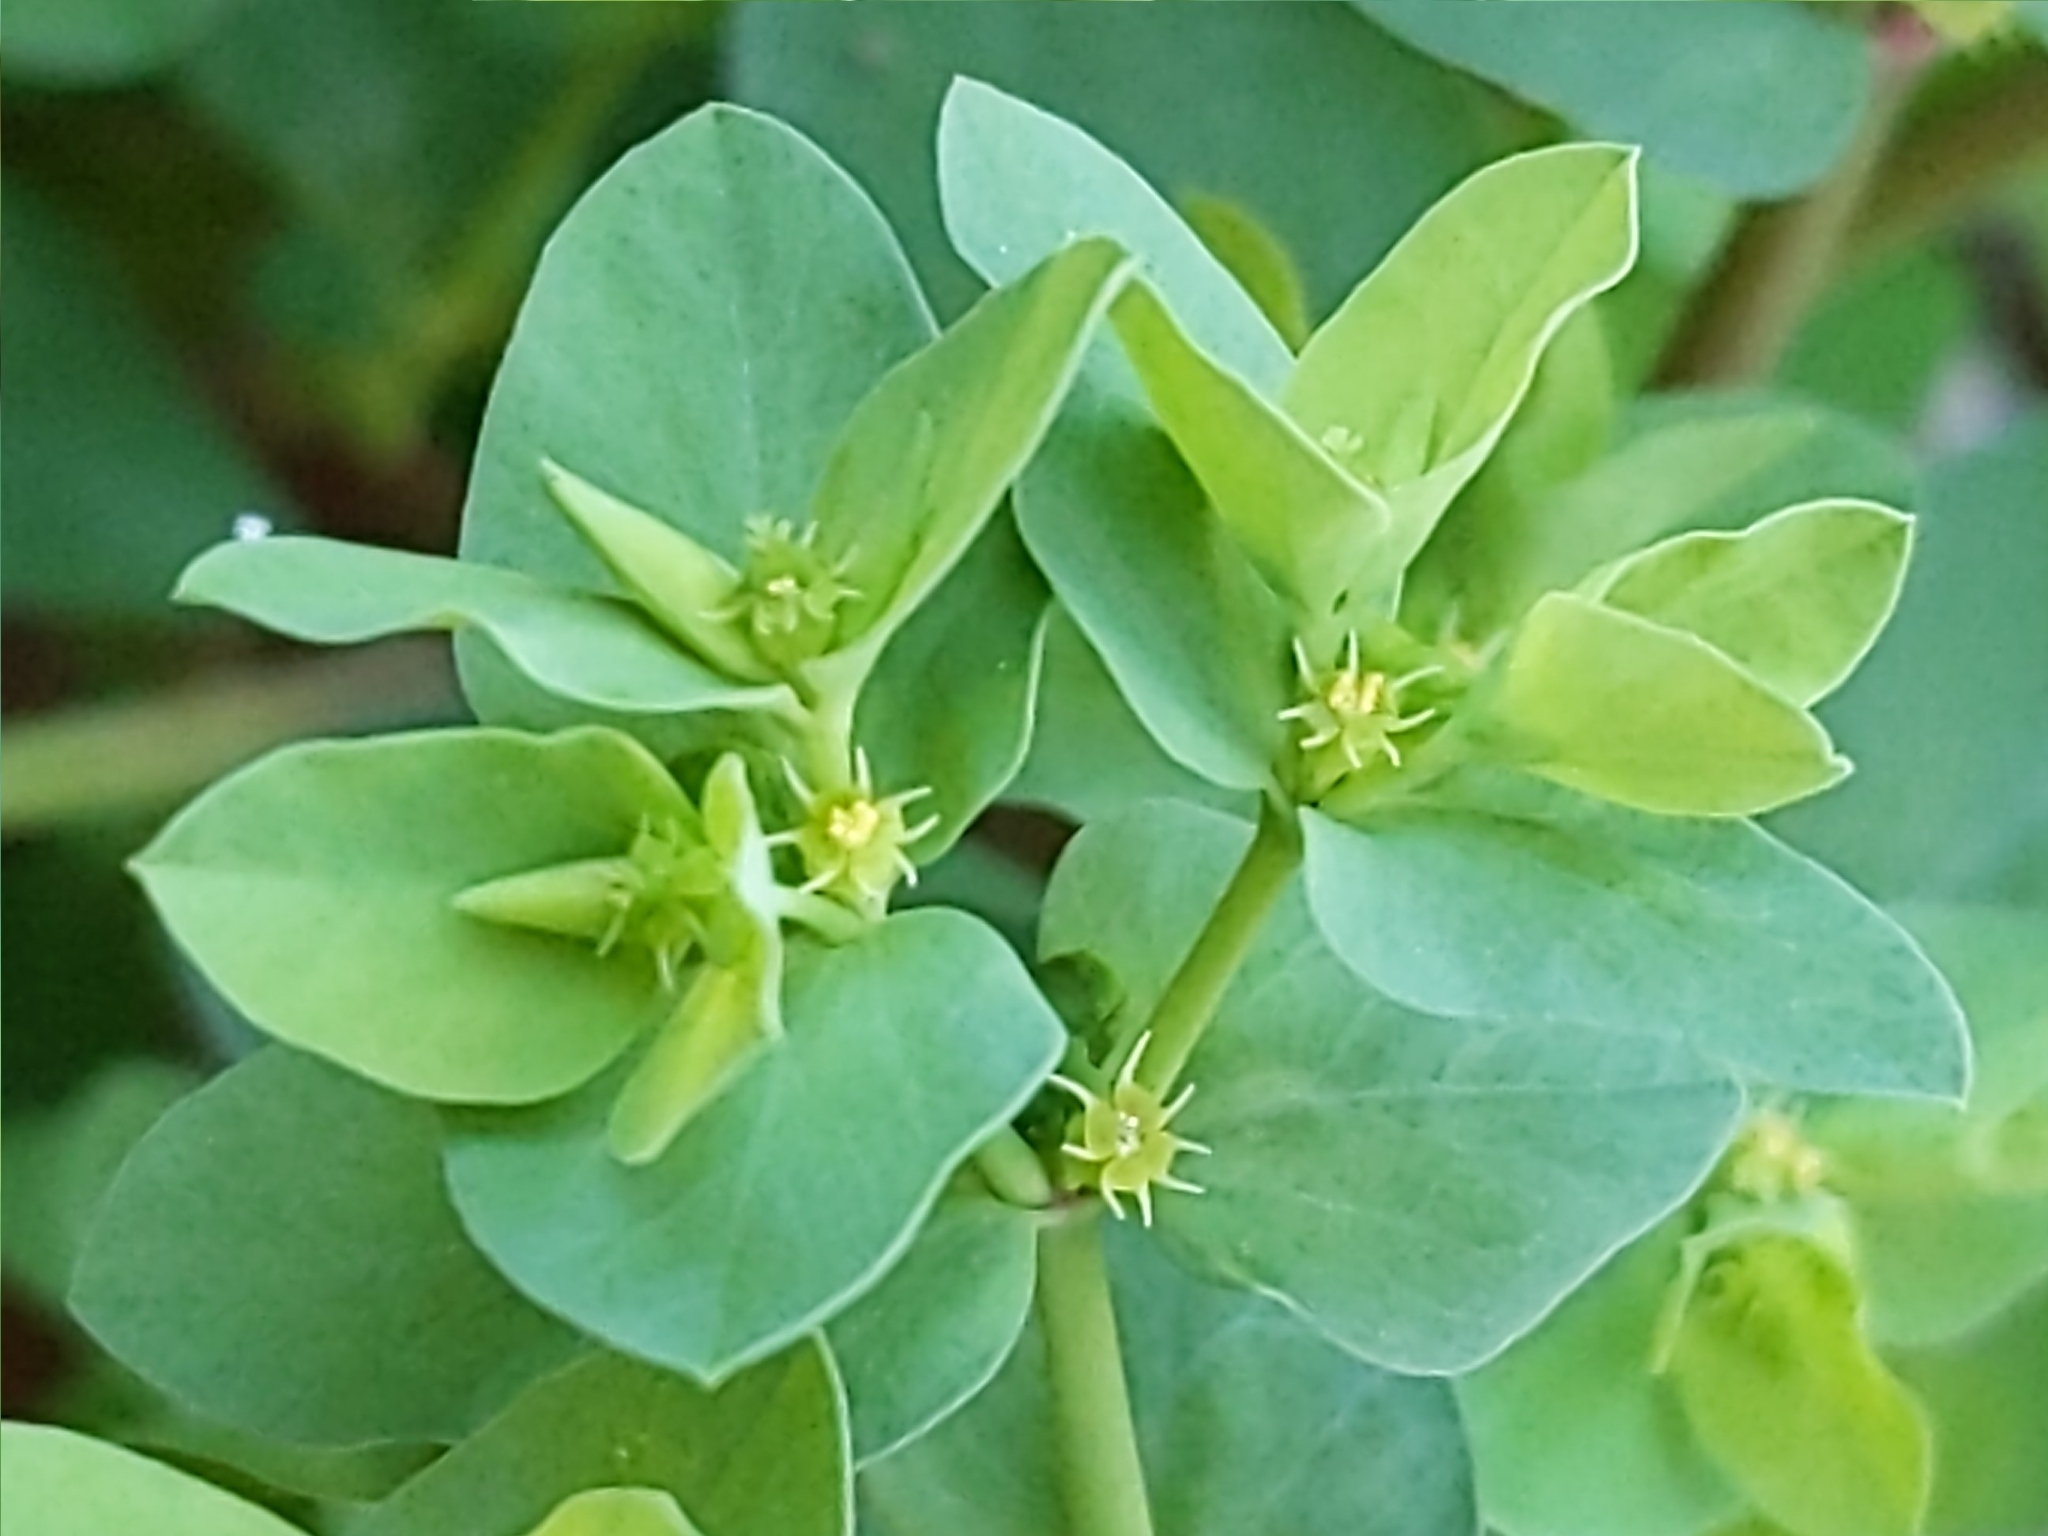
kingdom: Plantae
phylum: Tracheophyta
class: Magnoliopsida
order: Malpighiales
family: Euphorbiaceae
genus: Euphorbia
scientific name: Euphorbia peplus
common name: Petty spurge
